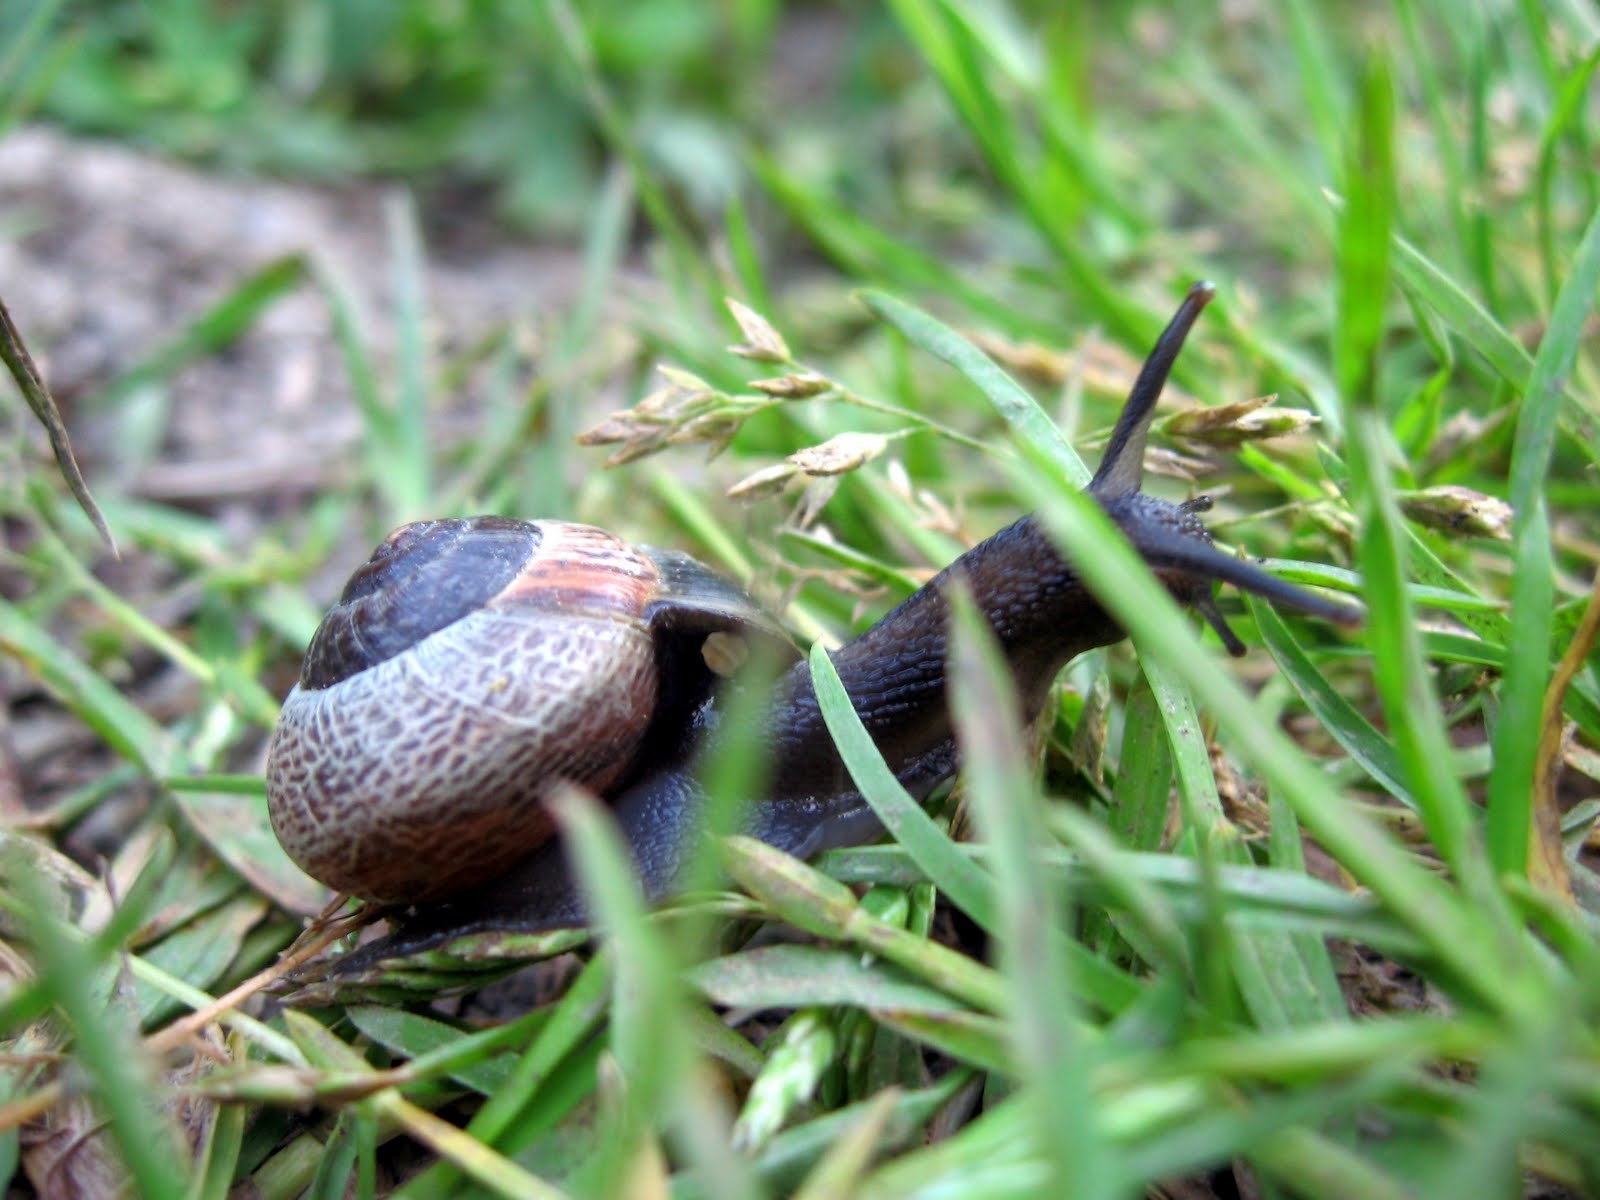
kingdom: Animalia
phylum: Mollusca
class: Gastropoda
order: Stylommatophora
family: Helicidae
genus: Arianta
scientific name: Arianta arbustorum
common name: Copse snail
